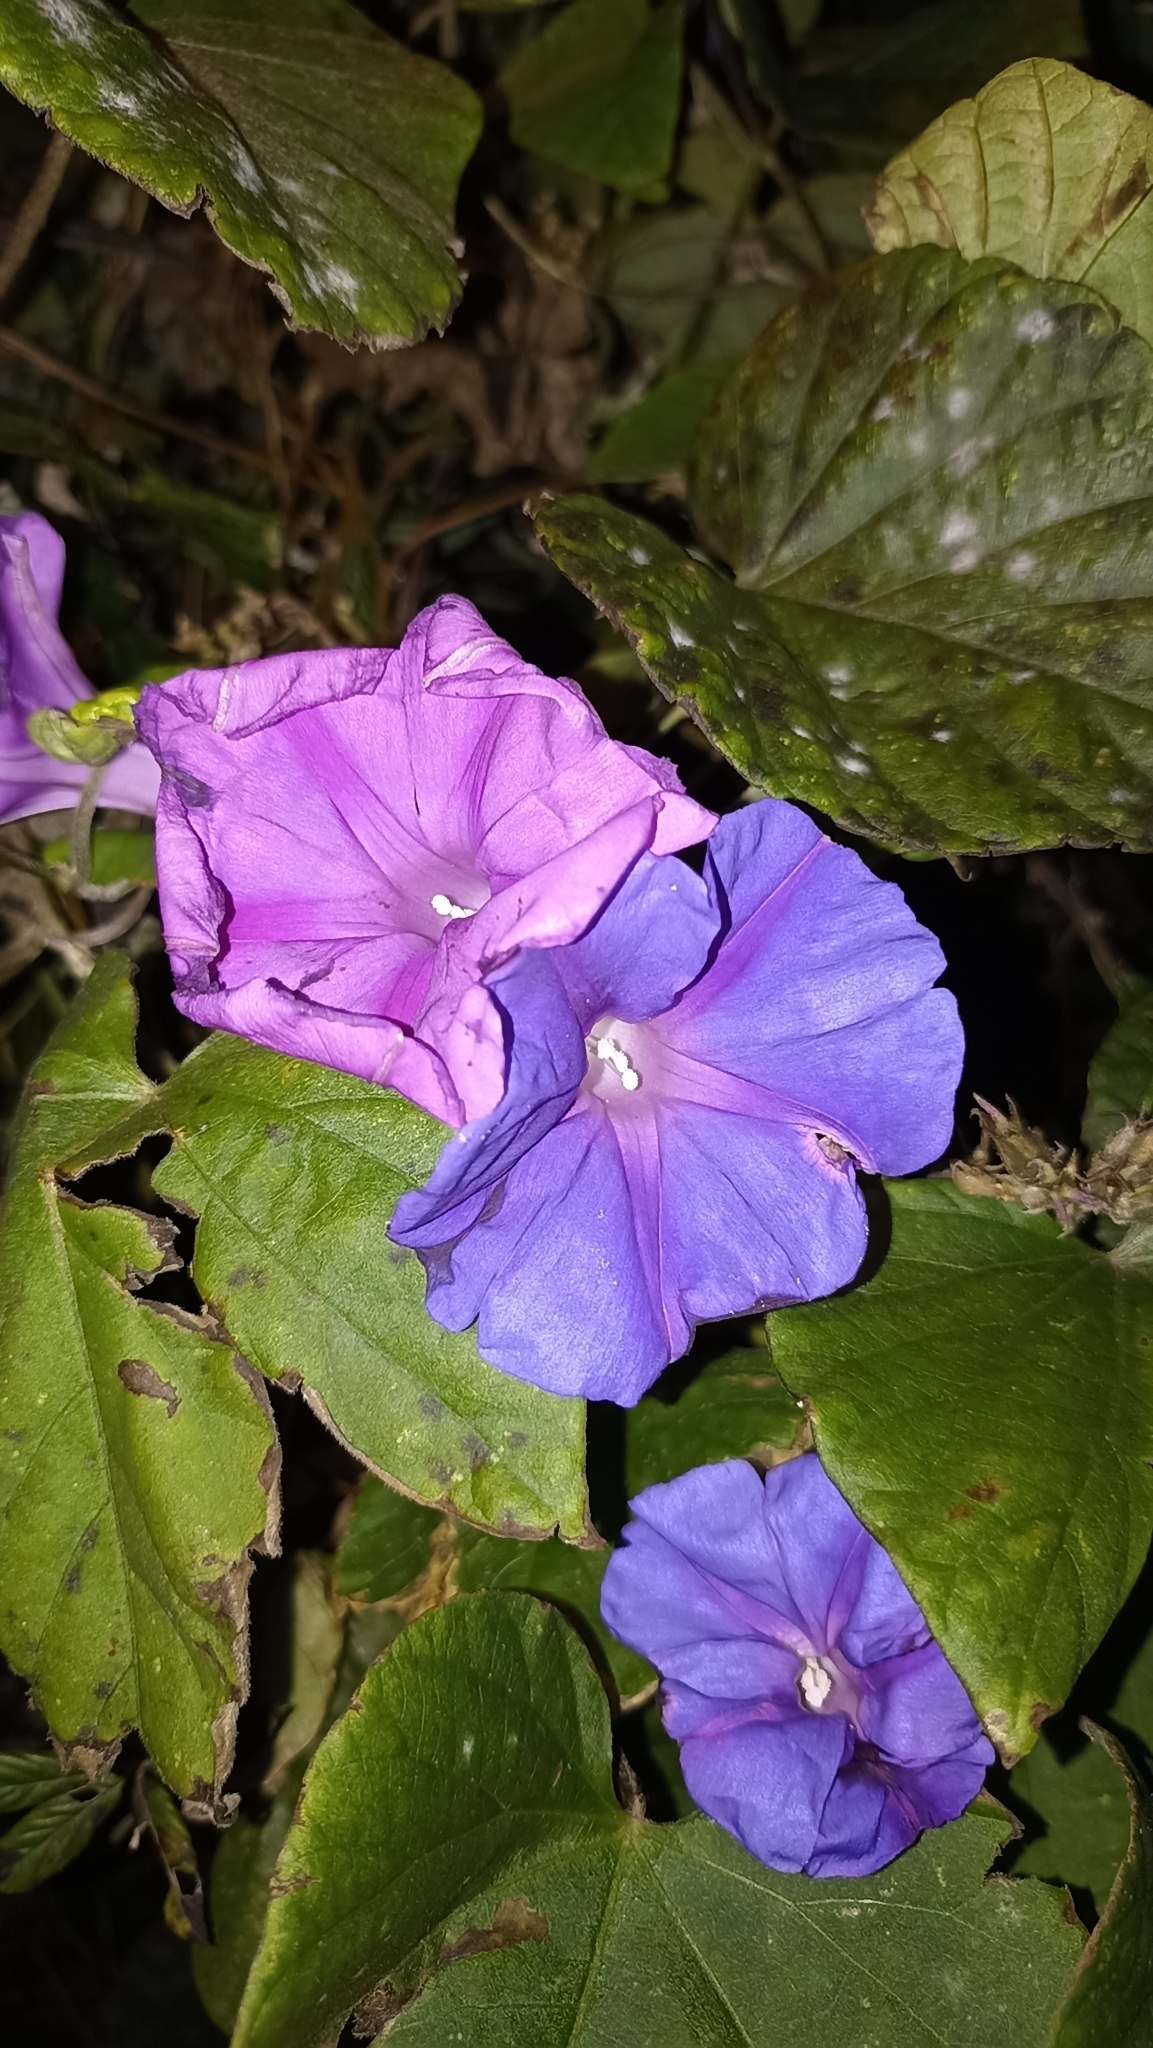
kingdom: Plantae
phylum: Tracheophyta
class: Magnoliopsida
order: Solanales
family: Convolvulaceae
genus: Ipomoea
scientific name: Ipomoea indica
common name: Blue dawnflower
